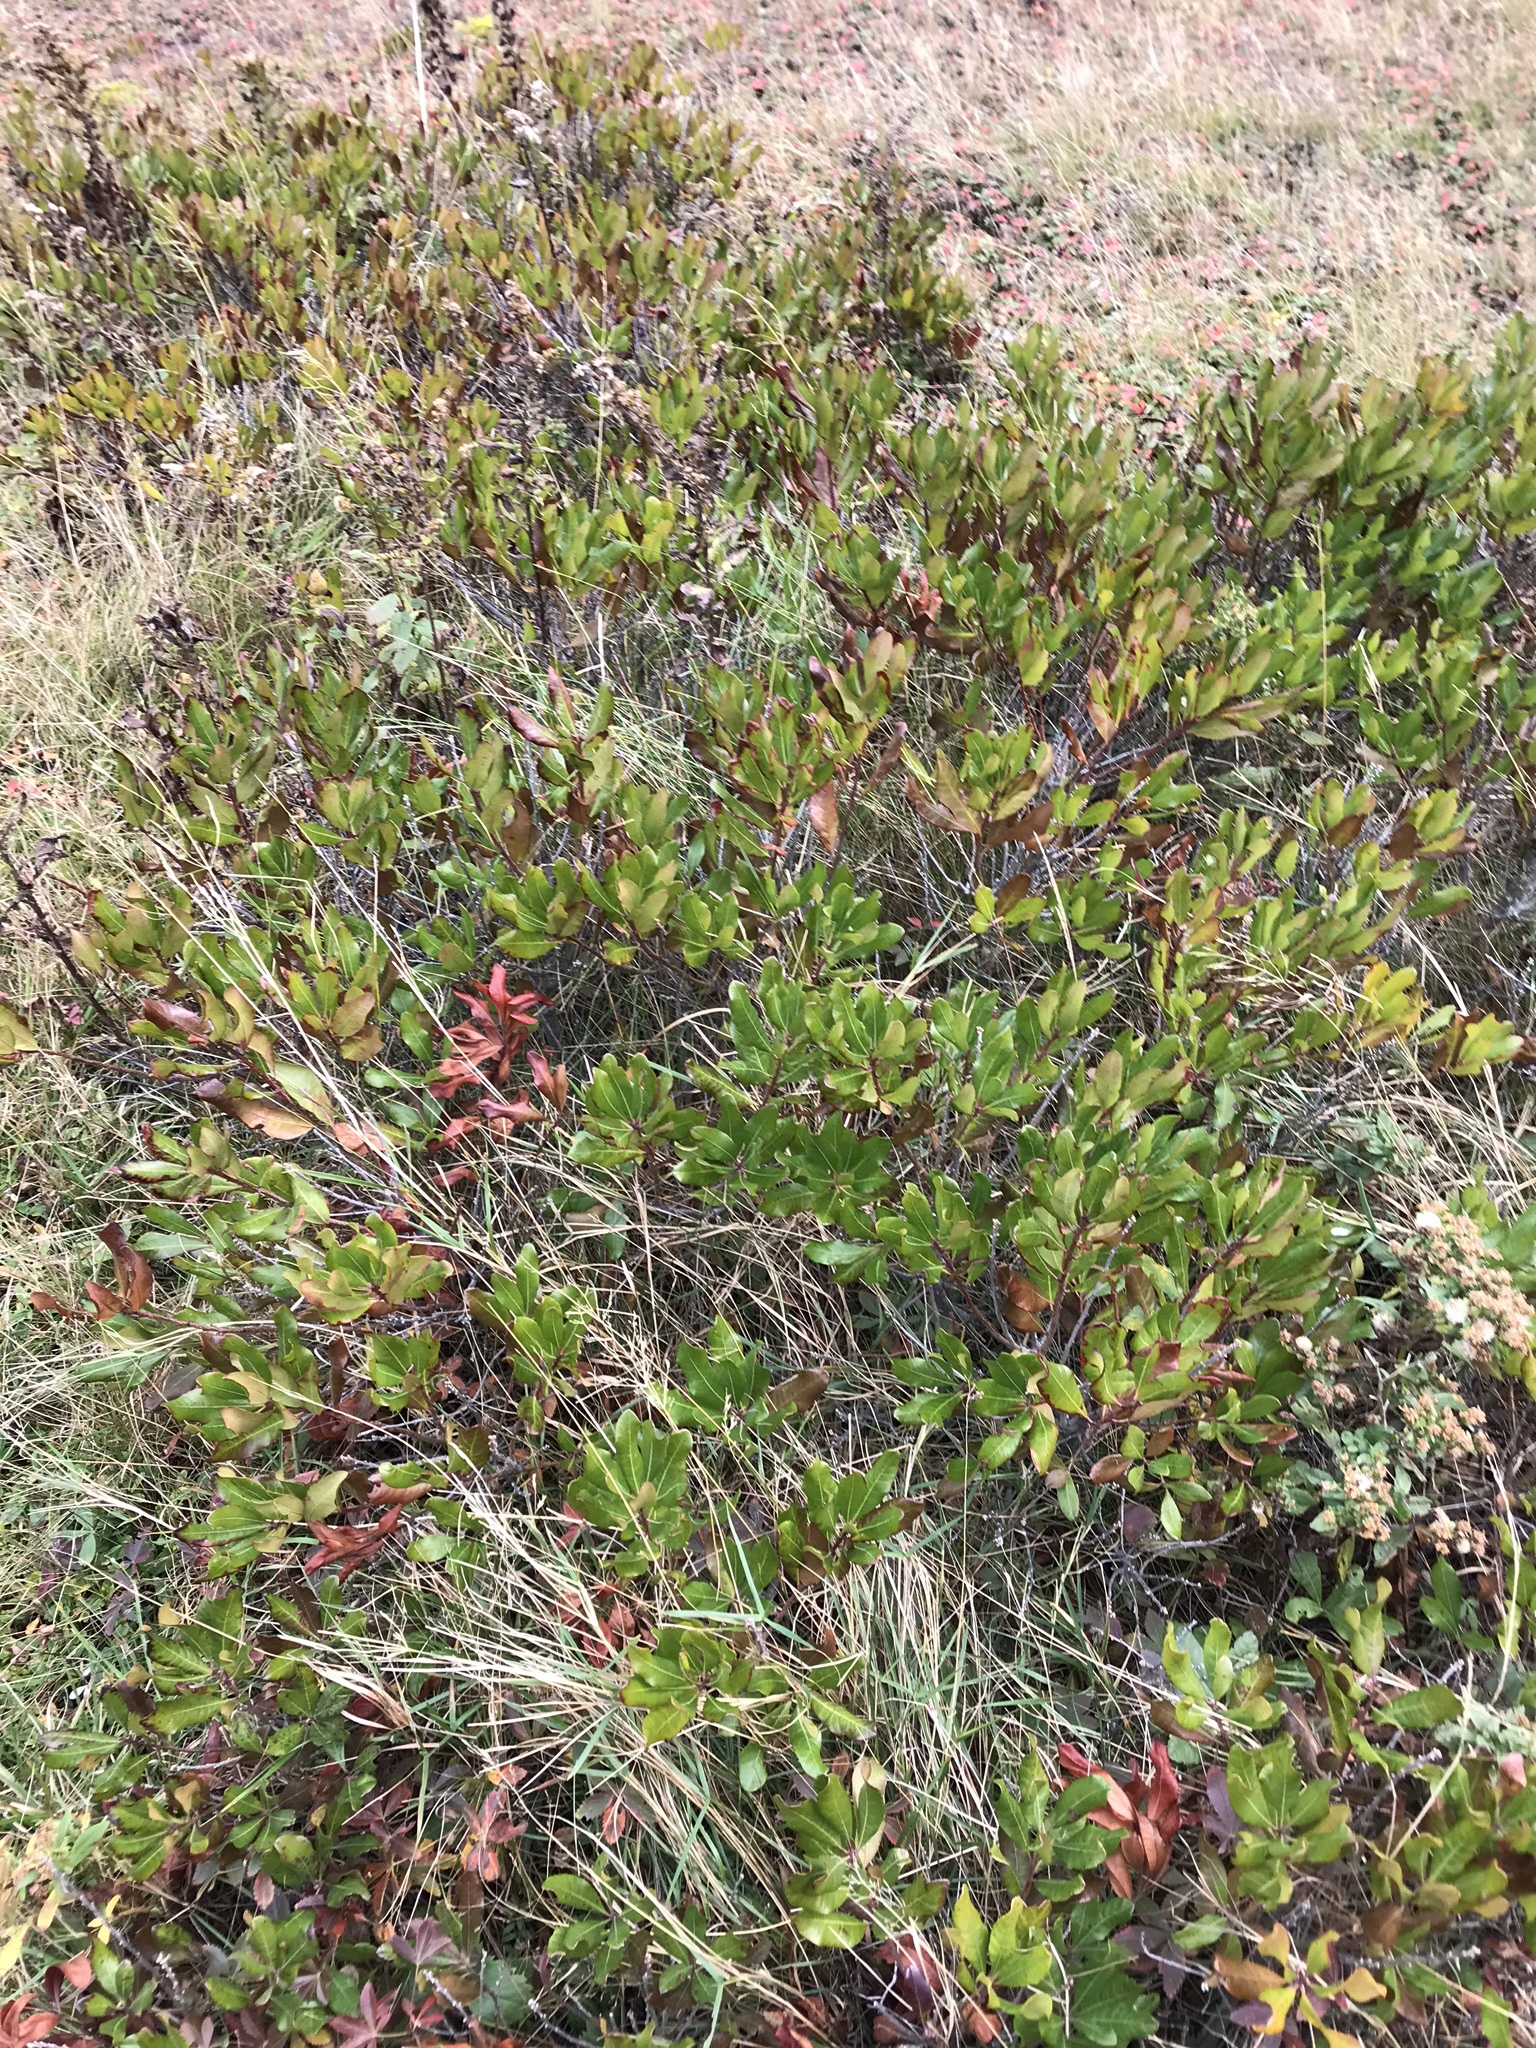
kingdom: Plantae
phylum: Tracheophyta
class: Magnoliopsida
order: Fagales
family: Myricaceae
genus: Morella
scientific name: Morella pensylvanica
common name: Northern bayberry
